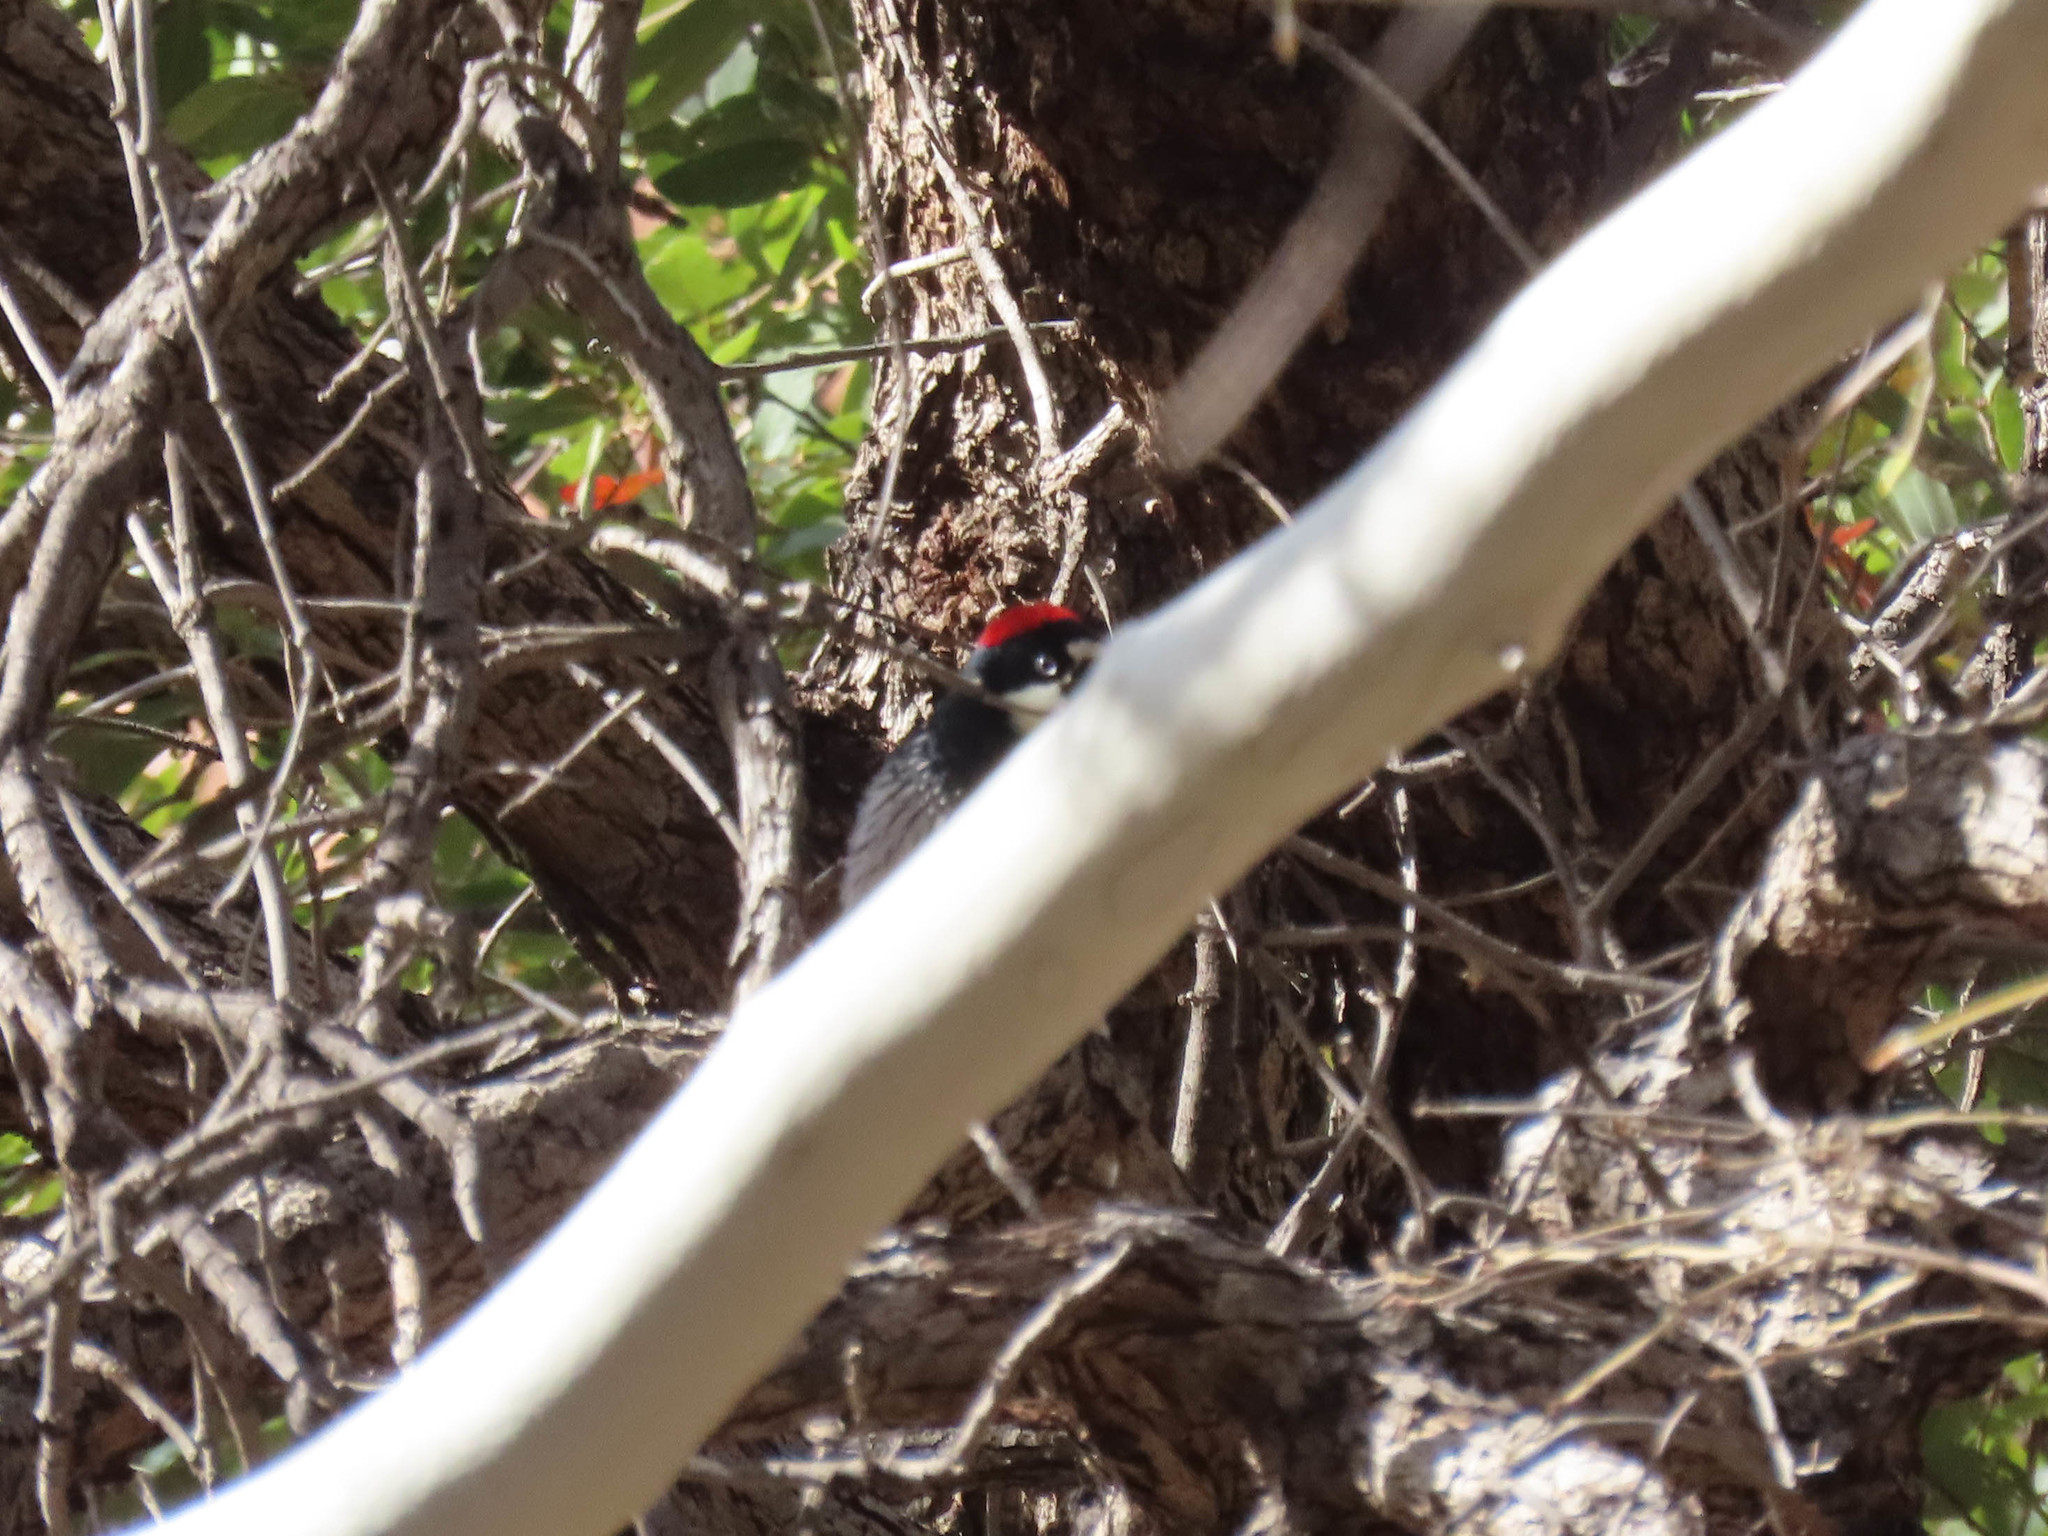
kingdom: Animalia
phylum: Chordata
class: Aves
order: Piciformes
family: Picidae
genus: Melanerpes
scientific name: Melanerpes formicivorus
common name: Acorn woodpecker
